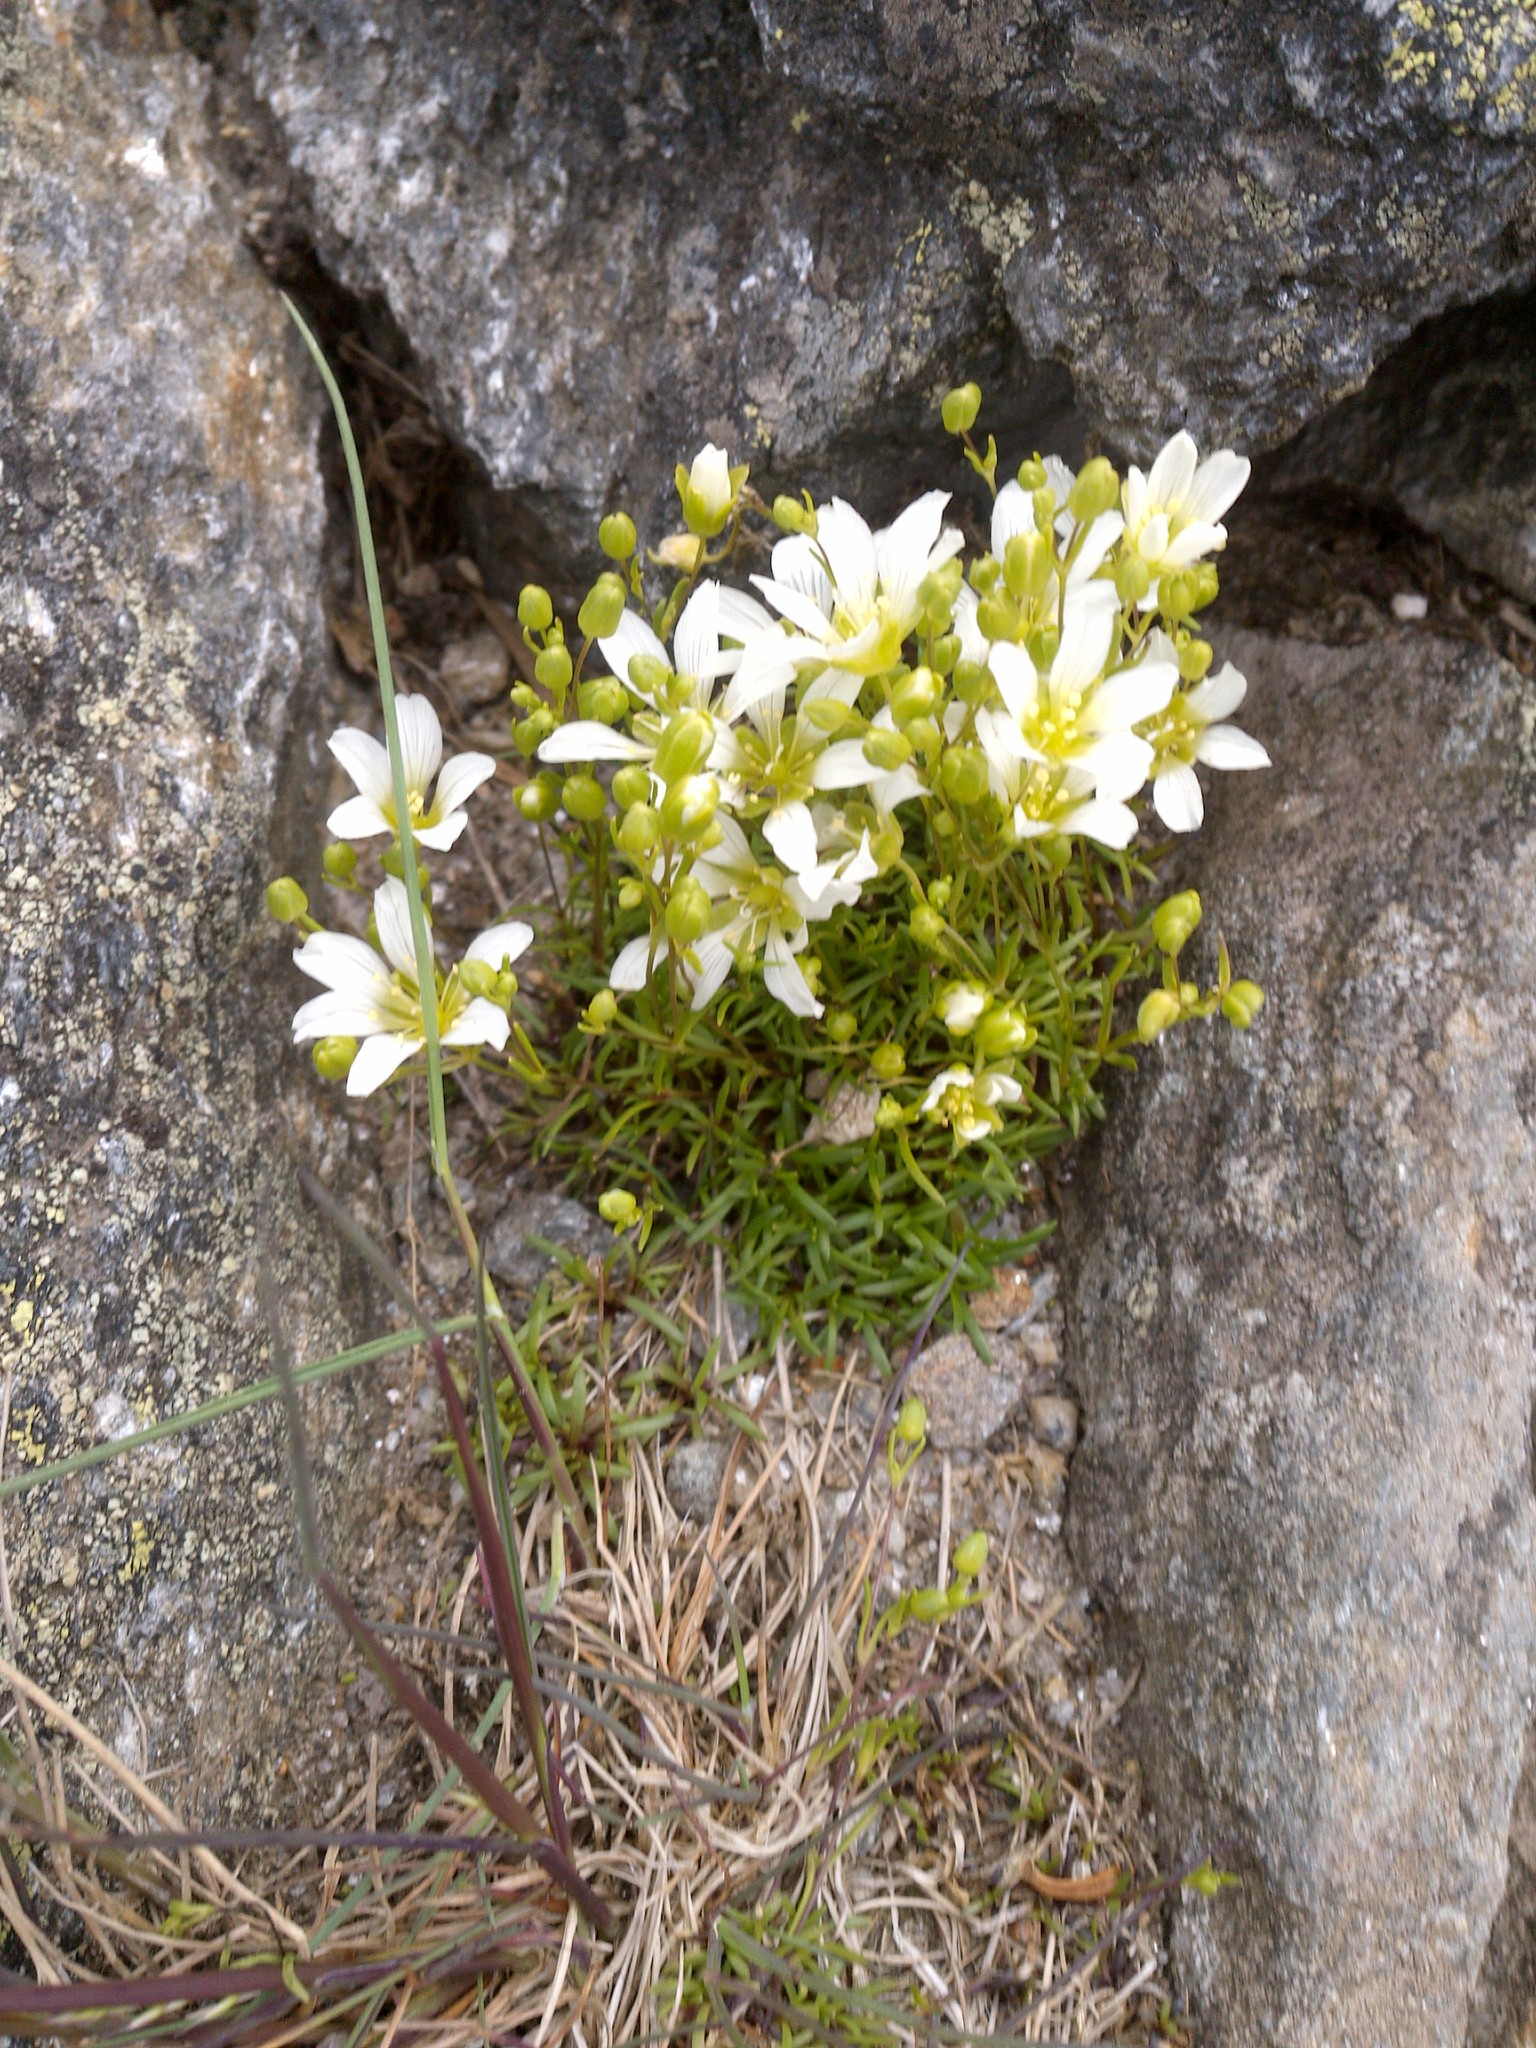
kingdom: Plantae
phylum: Tracheophyta
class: Magnoliopsida
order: Caryophyllales
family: Caryophyllaceae
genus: Geocarpon
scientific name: Geocarpon groenlandicum
